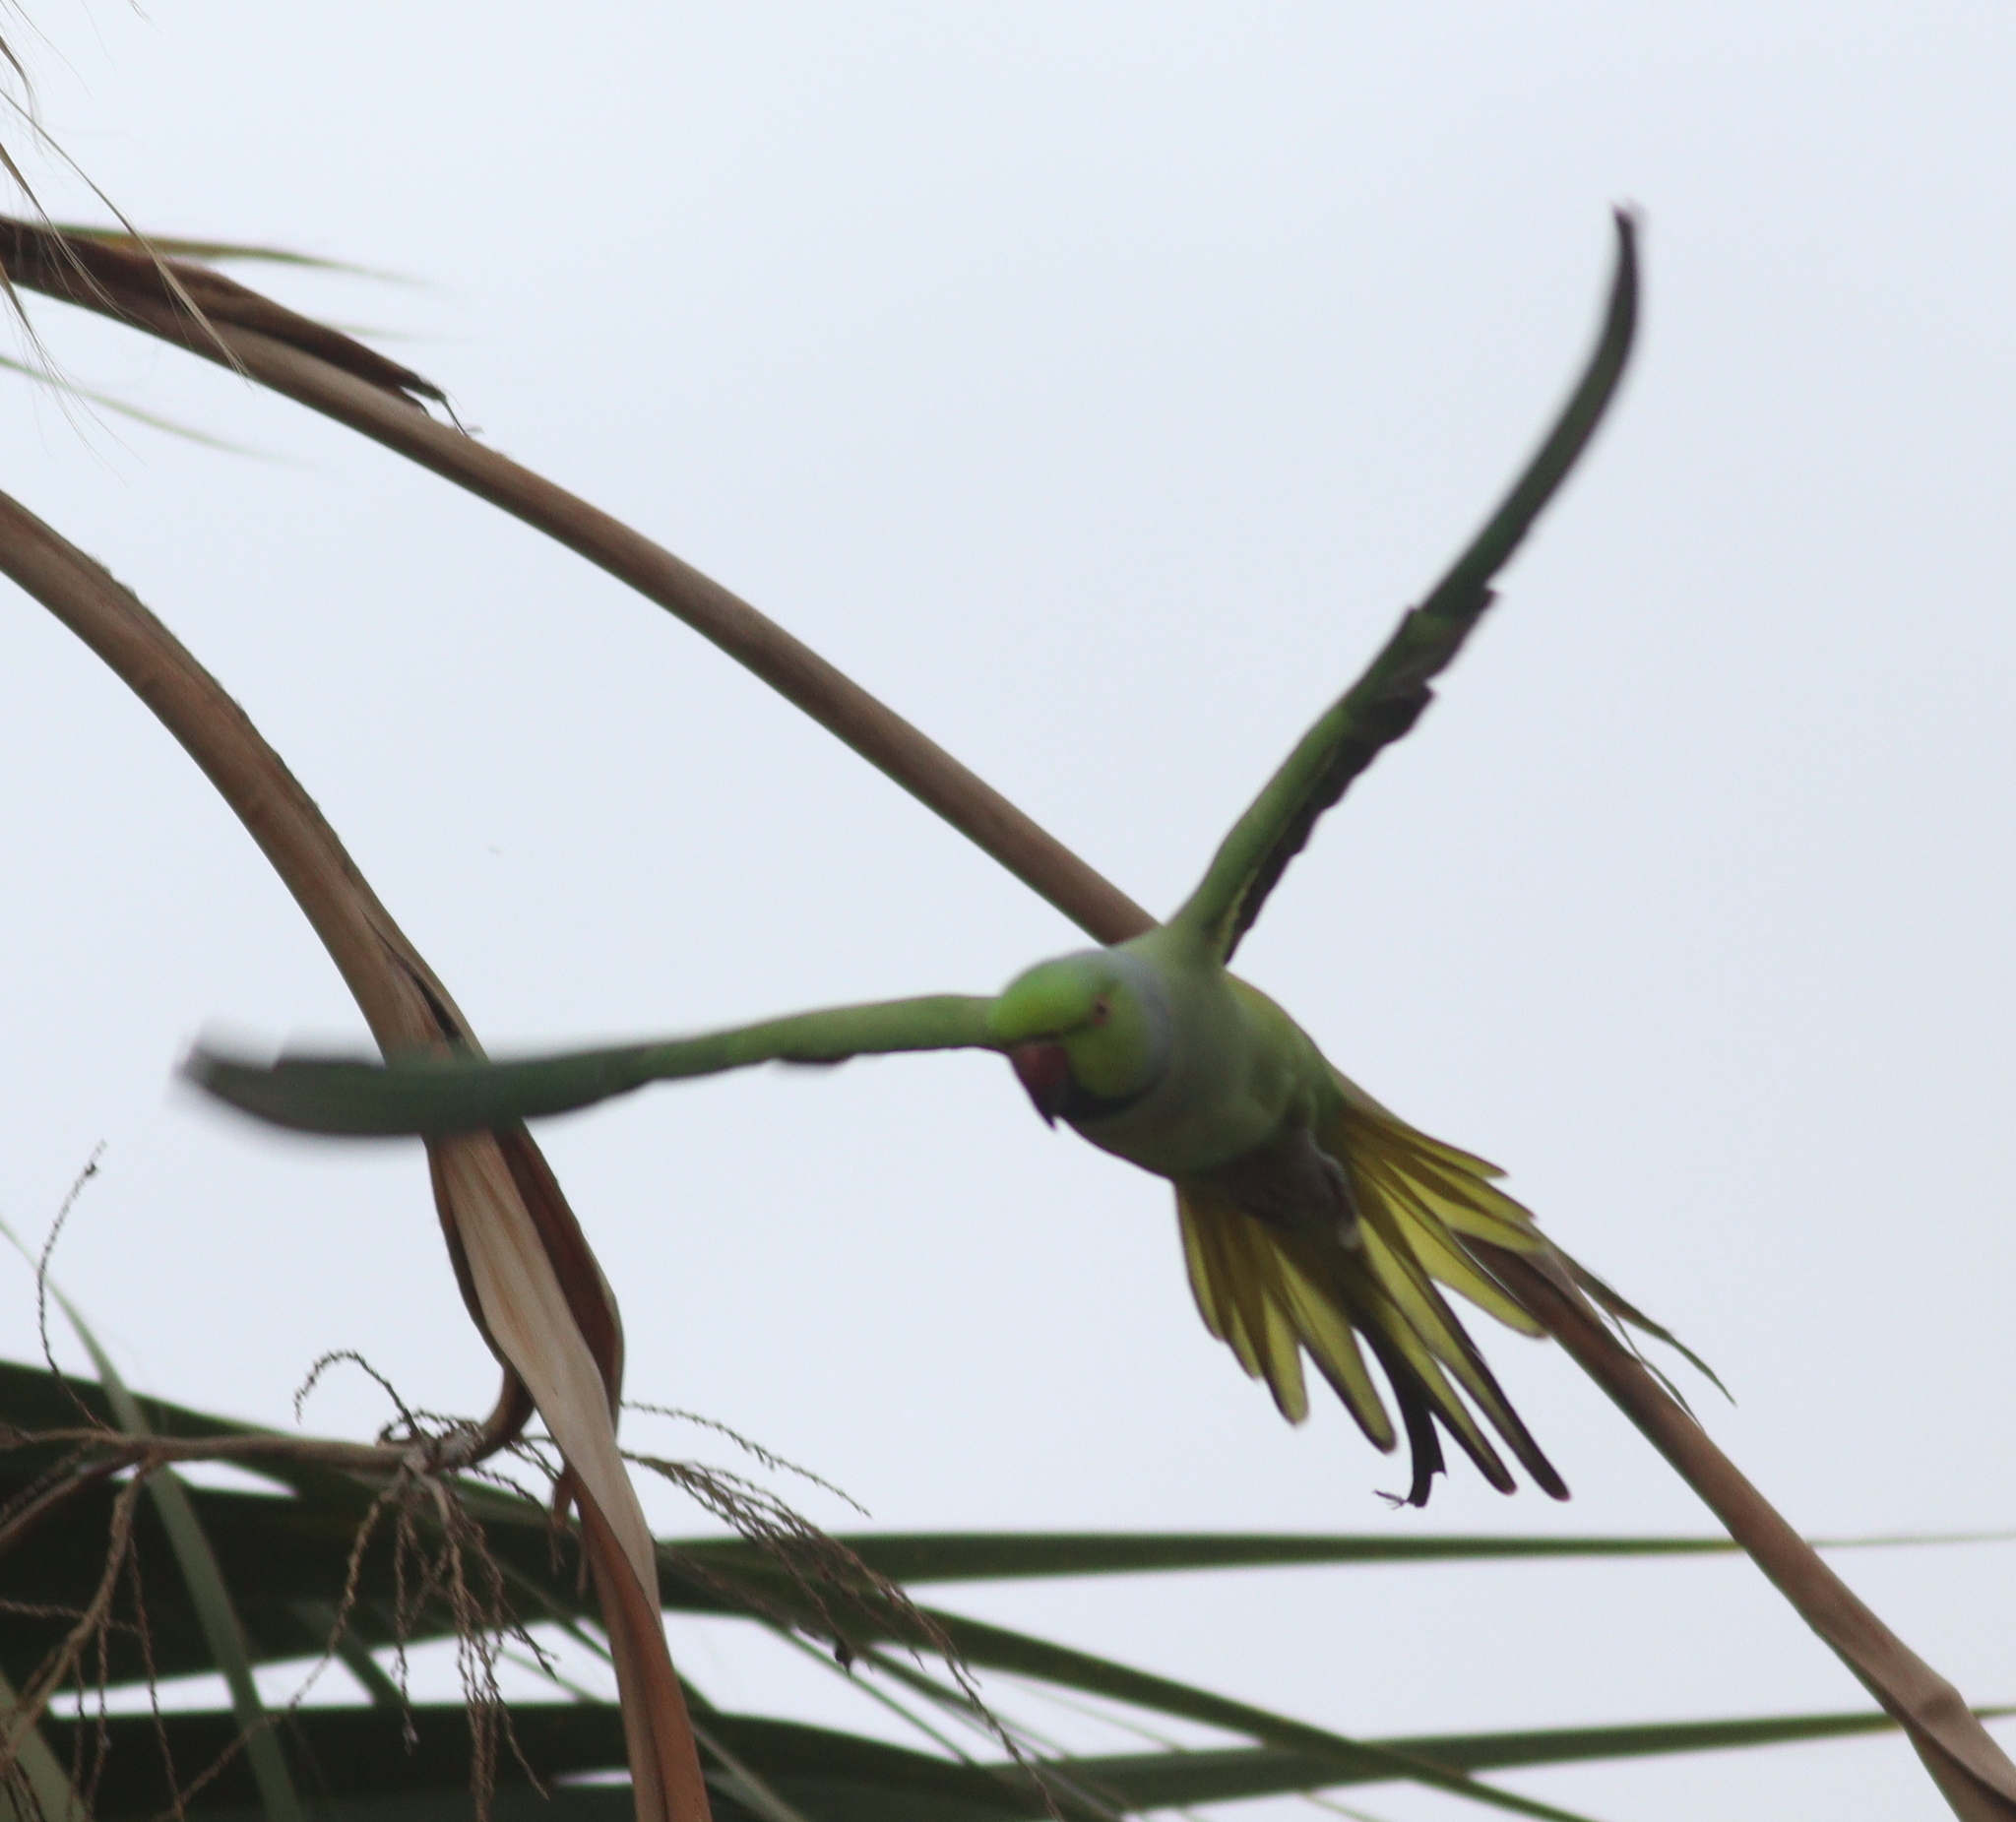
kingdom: Animalia
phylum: Chordata
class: Aves
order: Psittaciformes
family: Psittacidae
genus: Psittacula
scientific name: Psittacula krameri
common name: Rose-ringed parakeet
